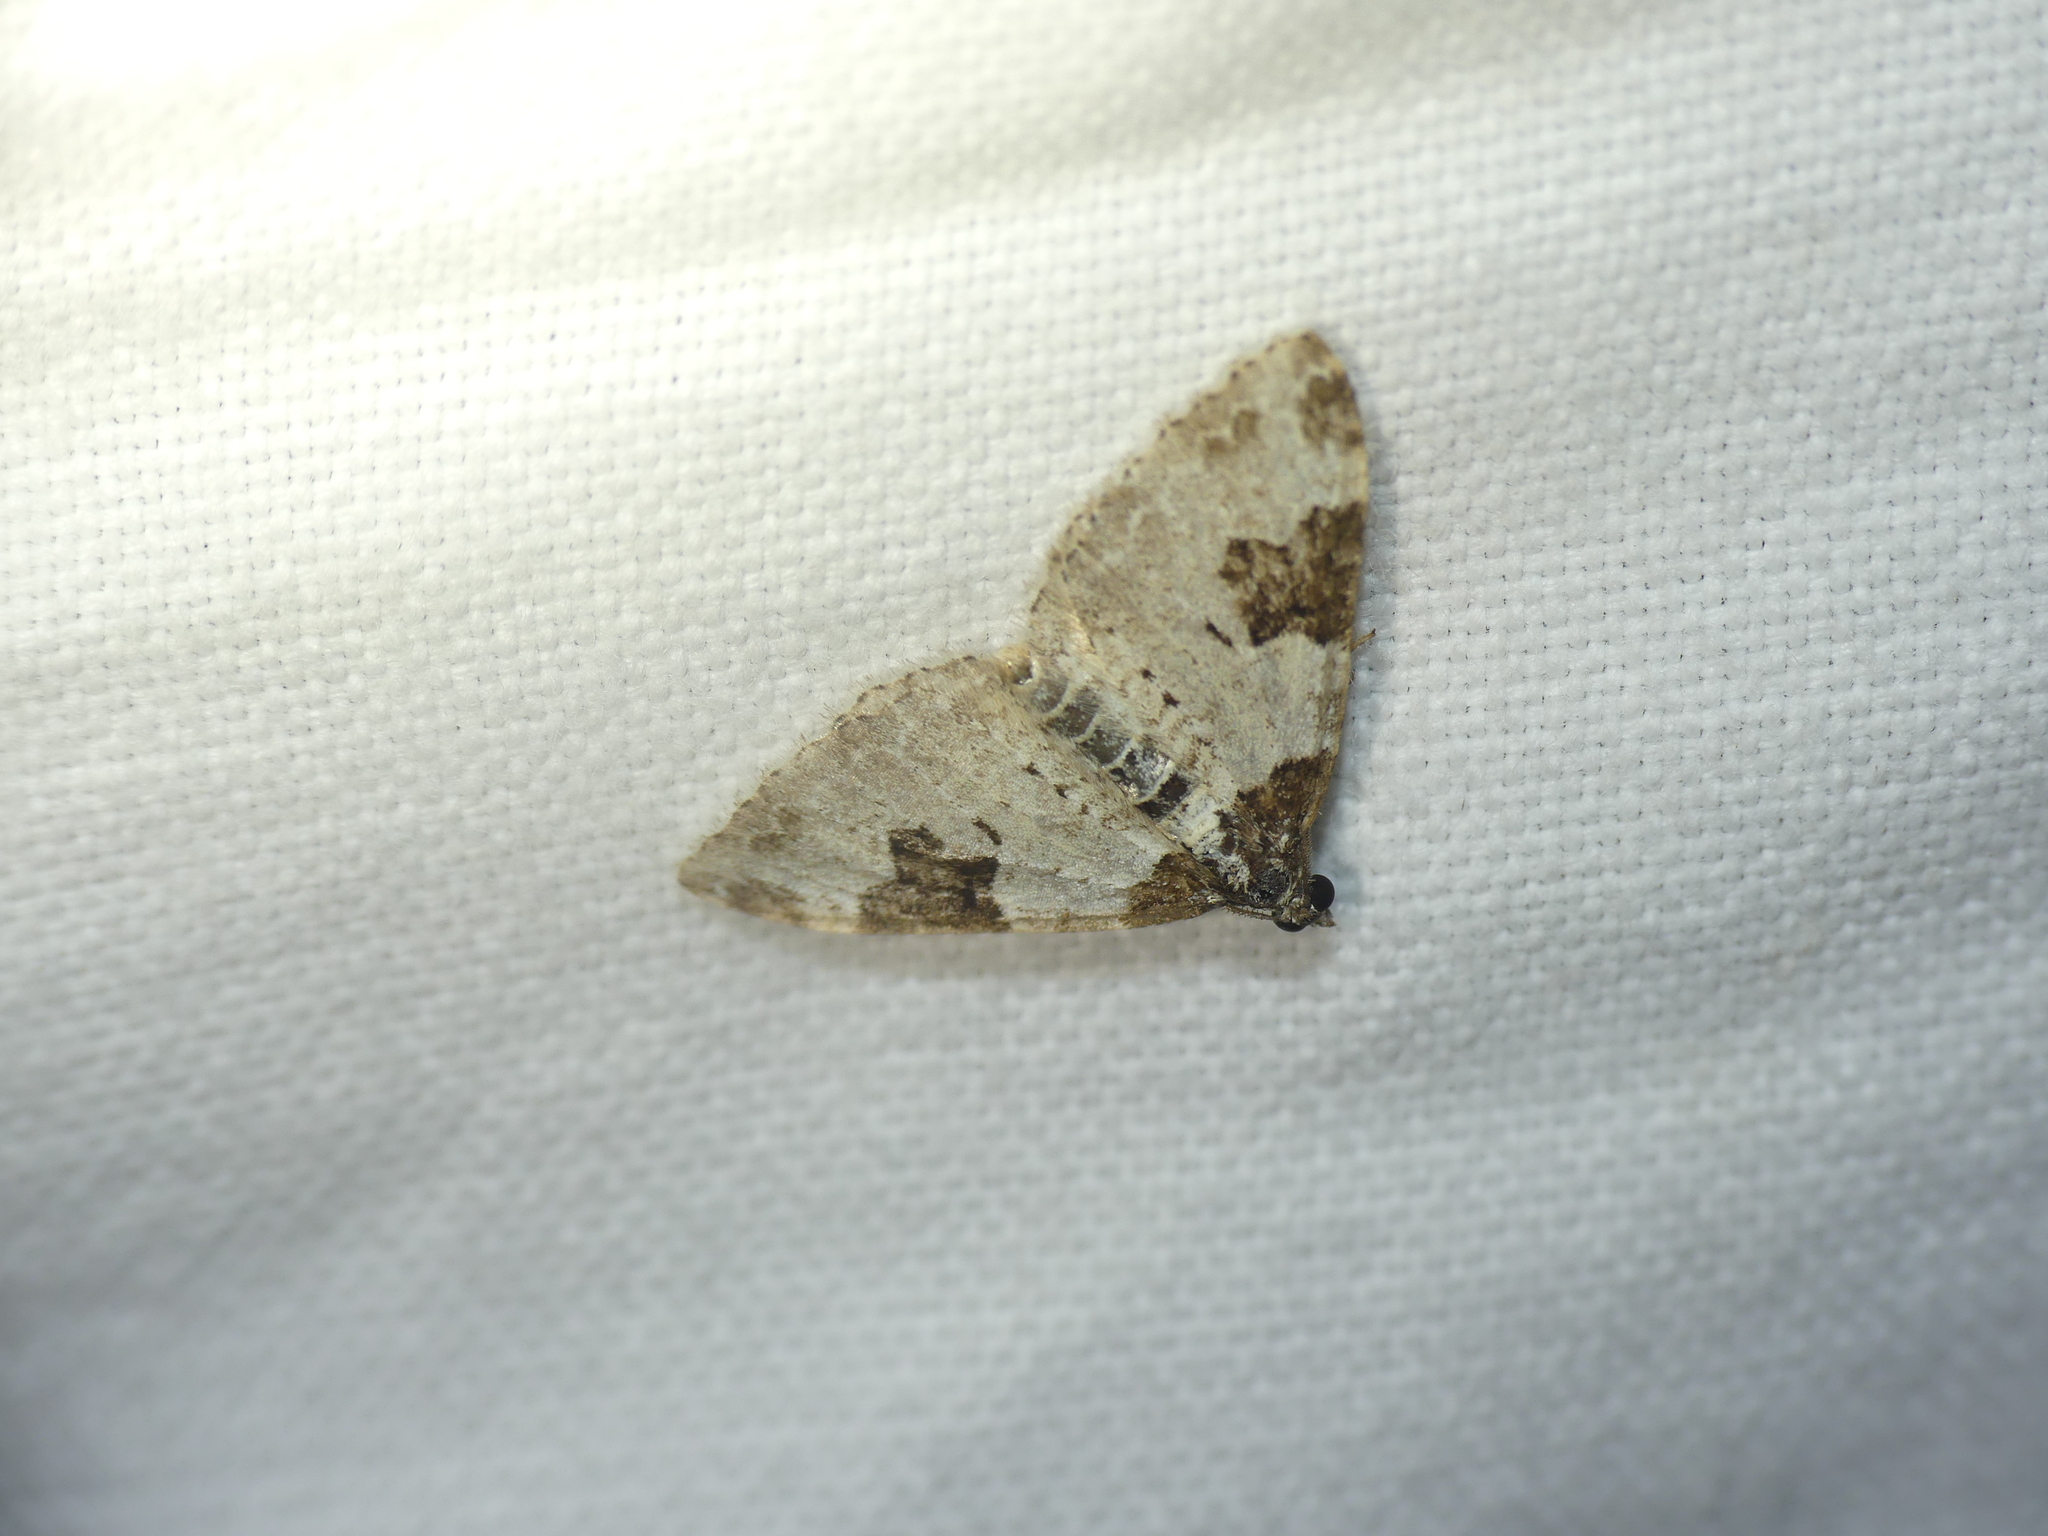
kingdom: Animalia
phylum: Arthropoda
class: Insecta
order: Lepidoptera
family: Geometridae
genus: Xanthorhoe
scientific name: Xanthorhoe fluctuata
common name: Garden carpet
